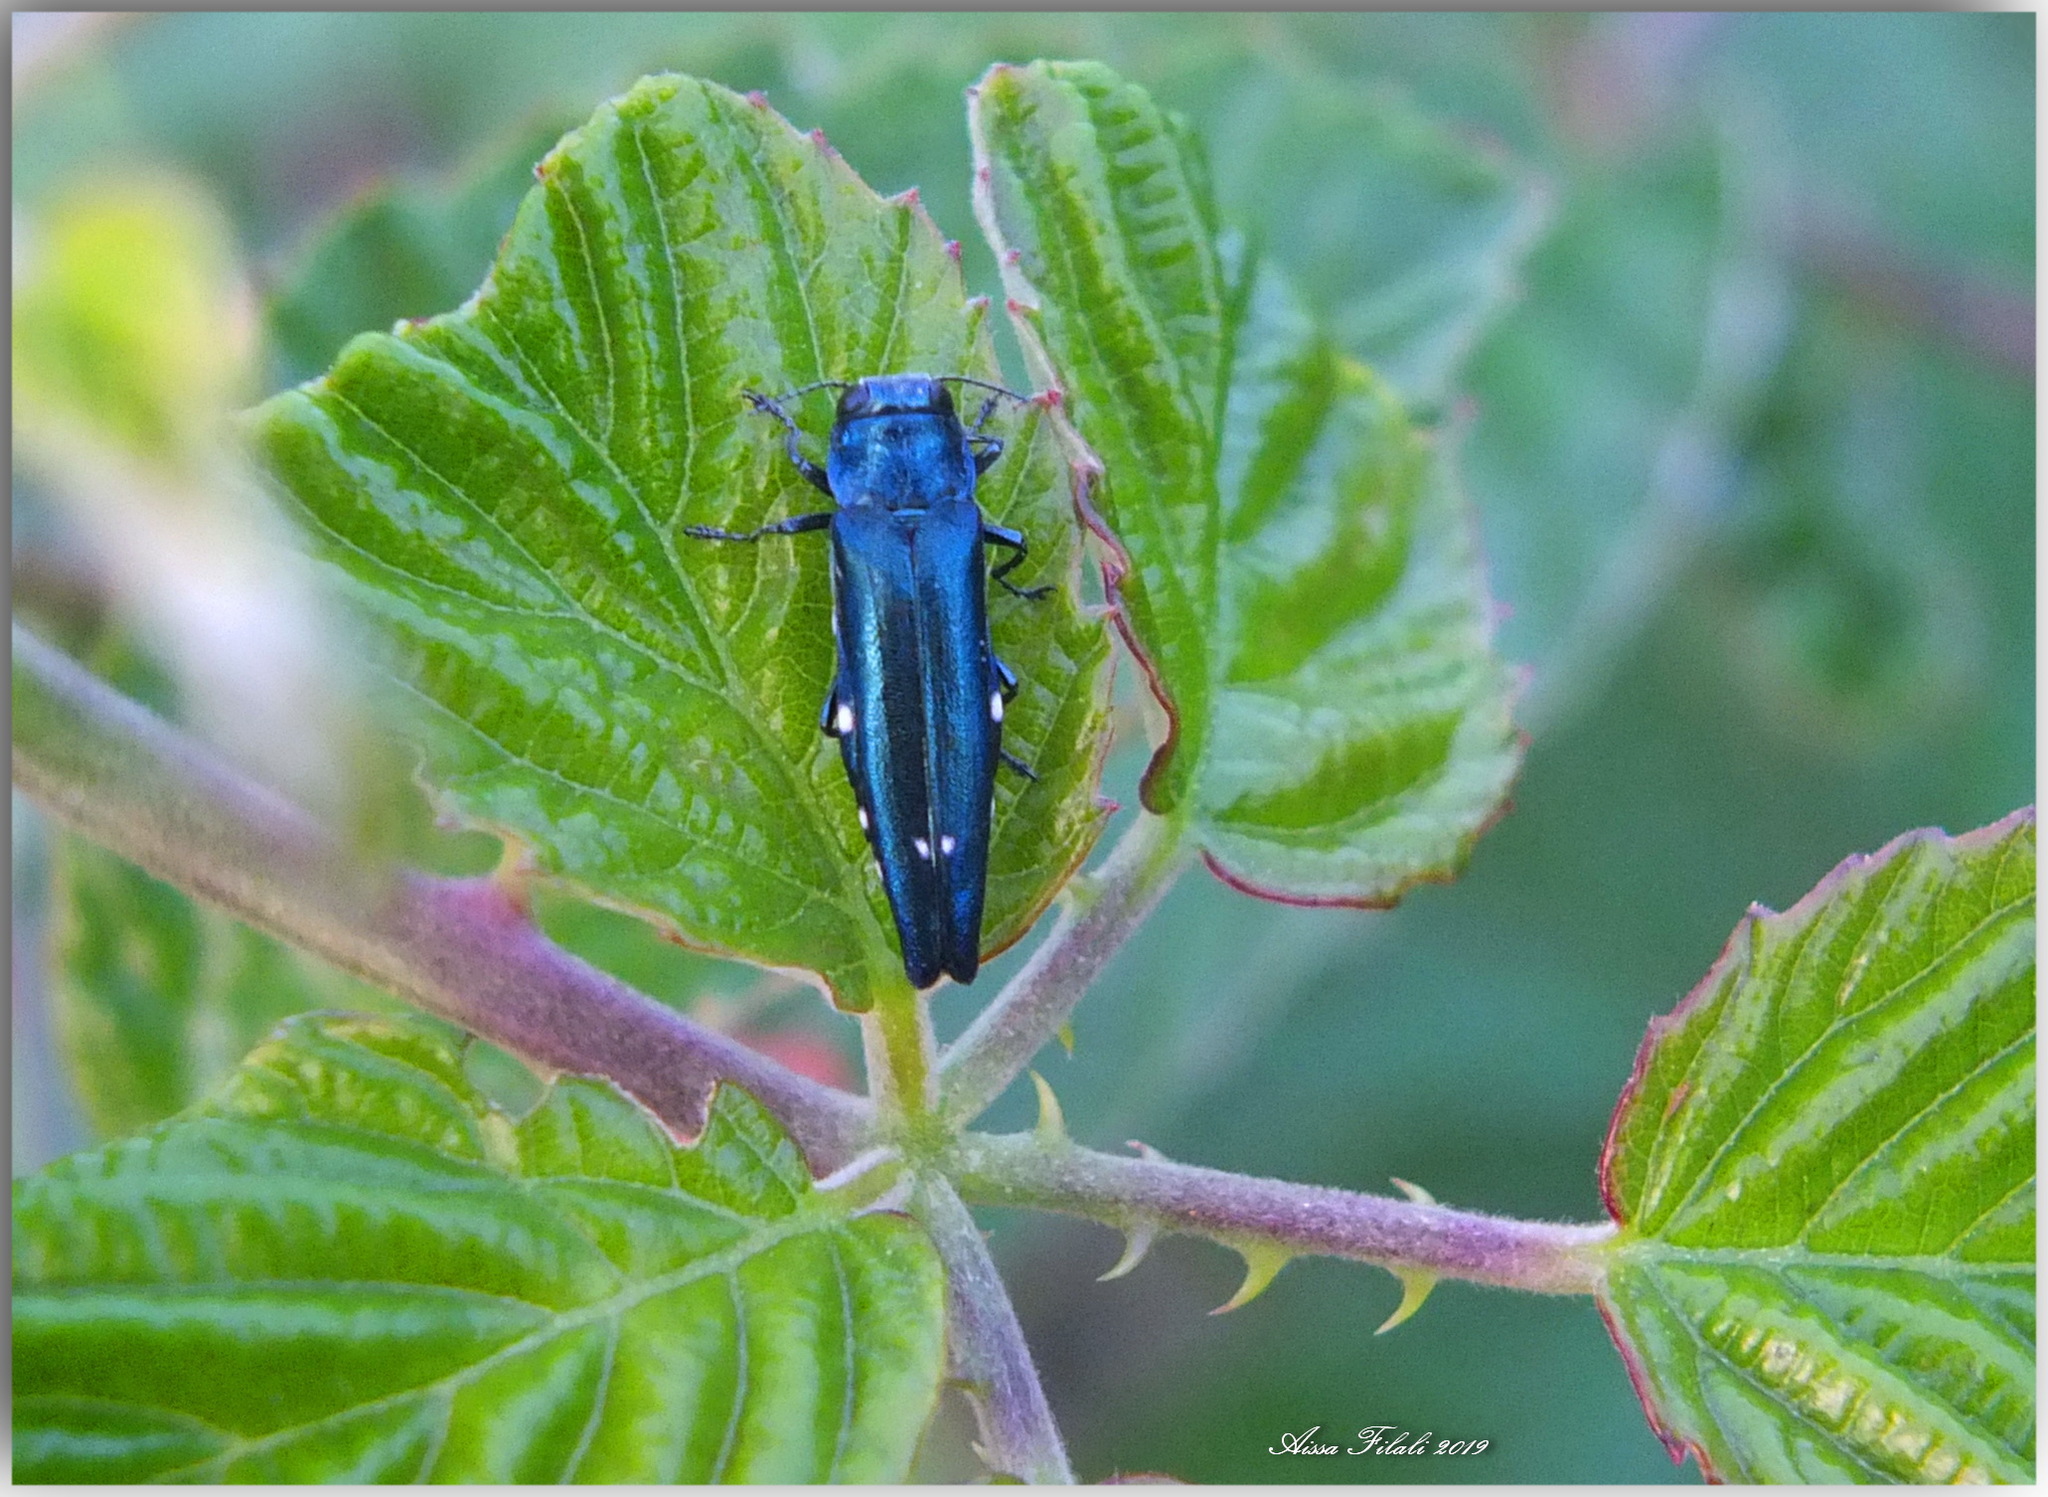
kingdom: Animalia
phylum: Arthropoda
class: Insecta
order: Coleoptera
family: Buprestidae
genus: Agrilus
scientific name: Agrilus biguttatus
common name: Oak jewel beetle
